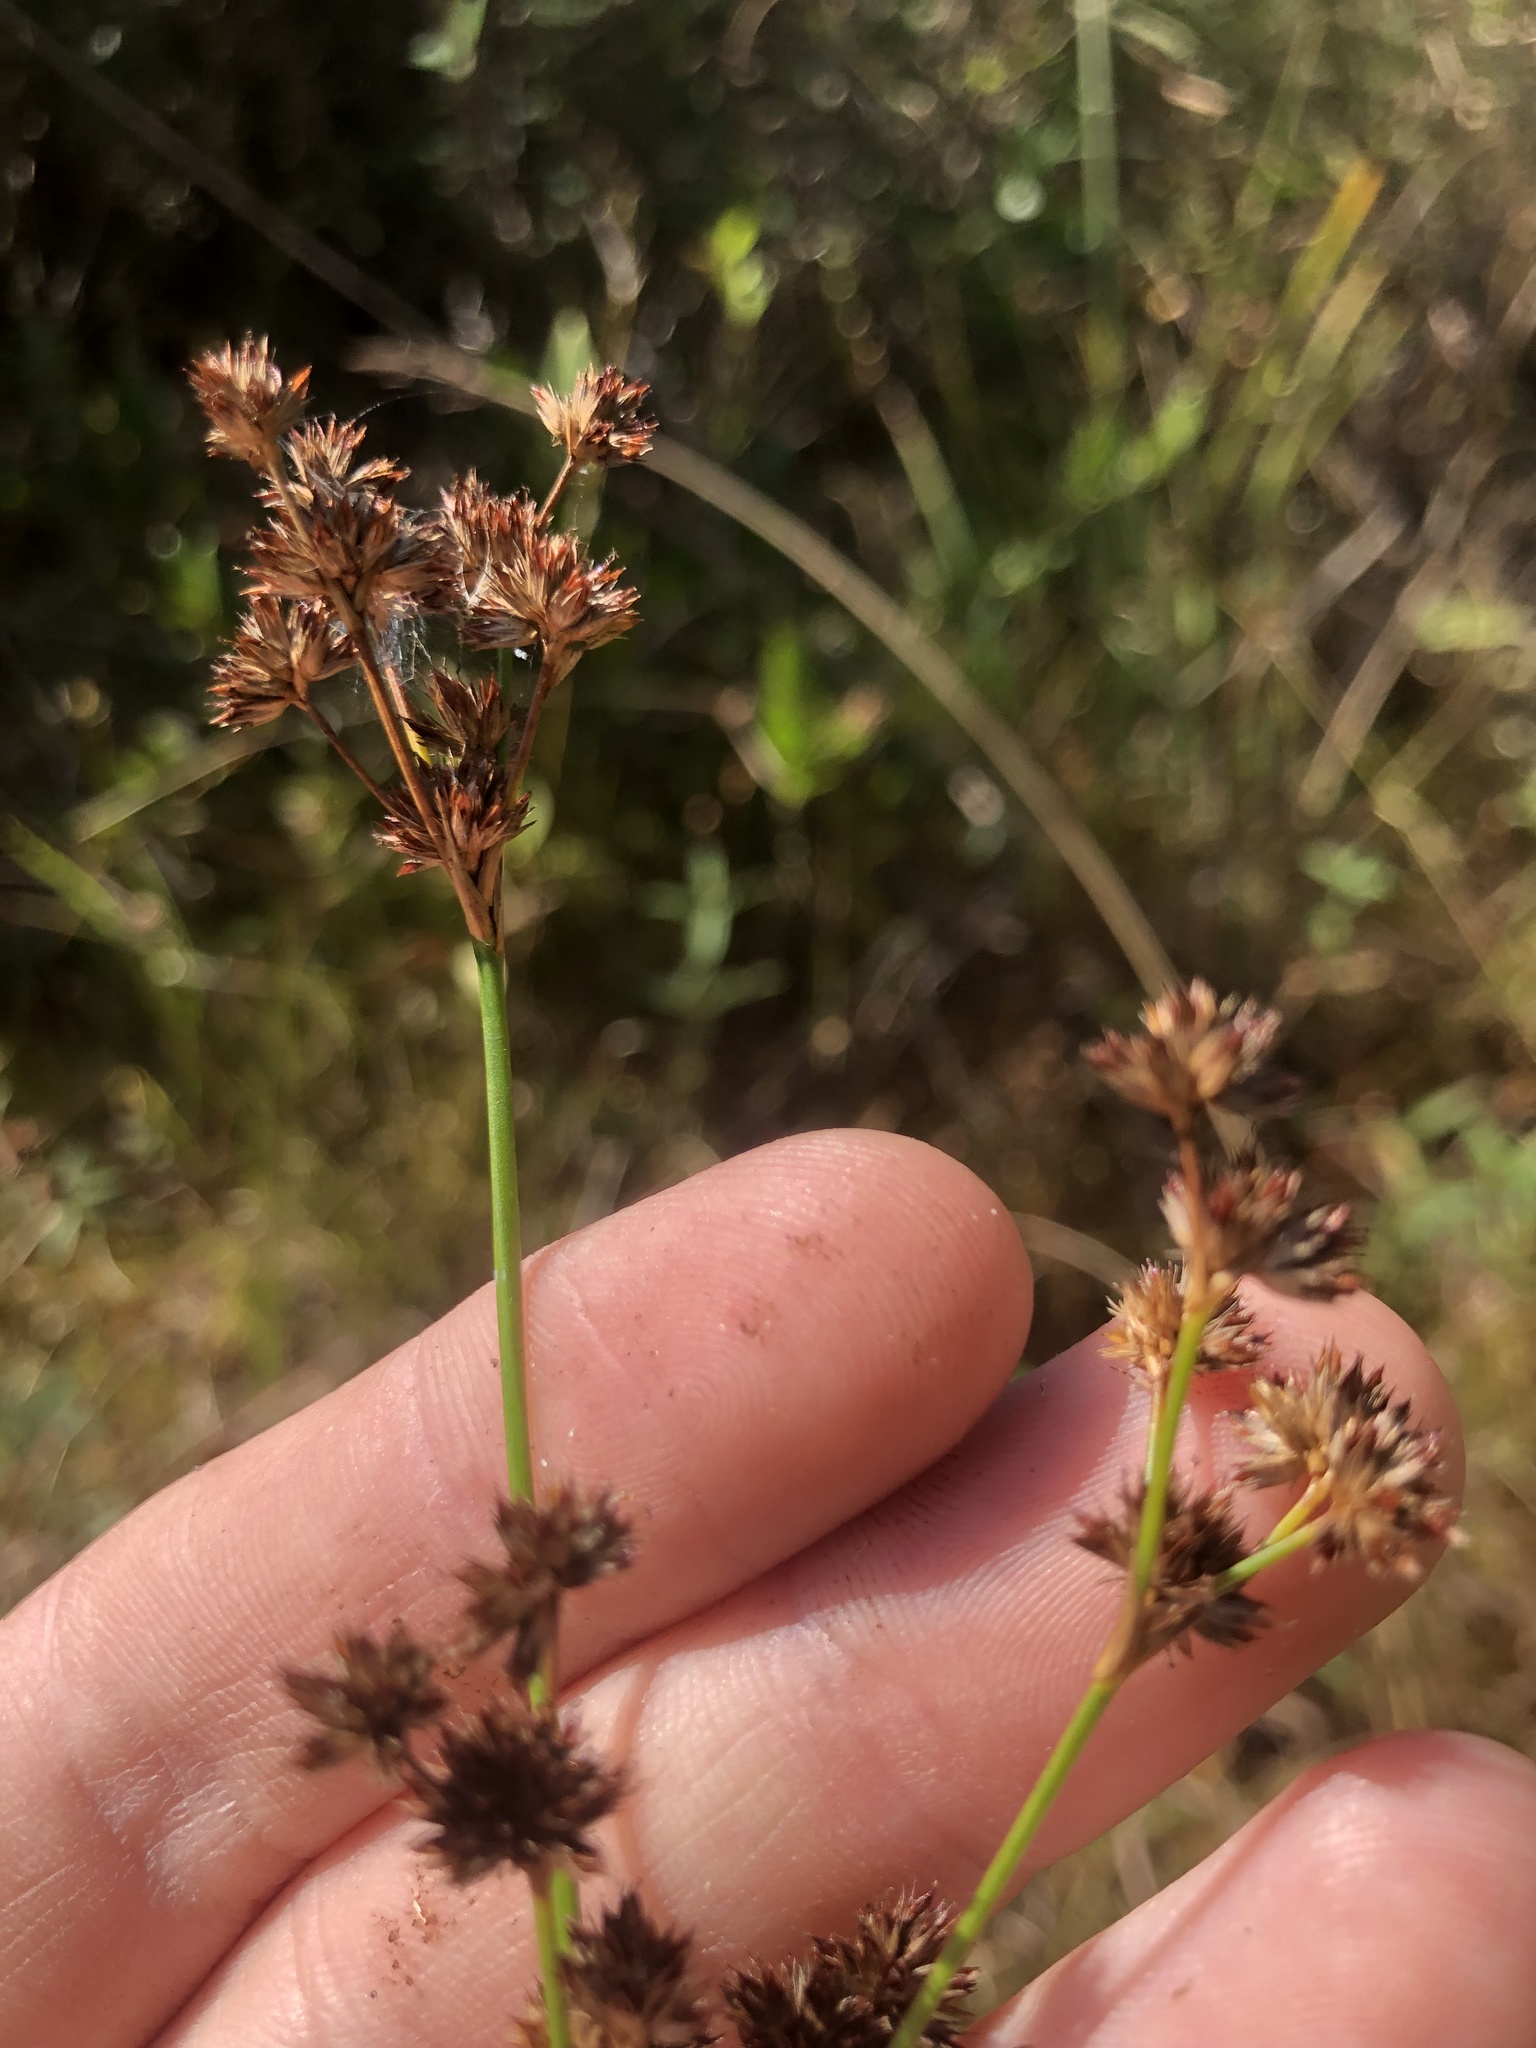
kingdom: Plantae
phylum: Tracheophyta
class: Liliopsida
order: Poales
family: Juncaceae
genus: Juncus
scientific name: Juncus canadensis
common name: Canada rush
